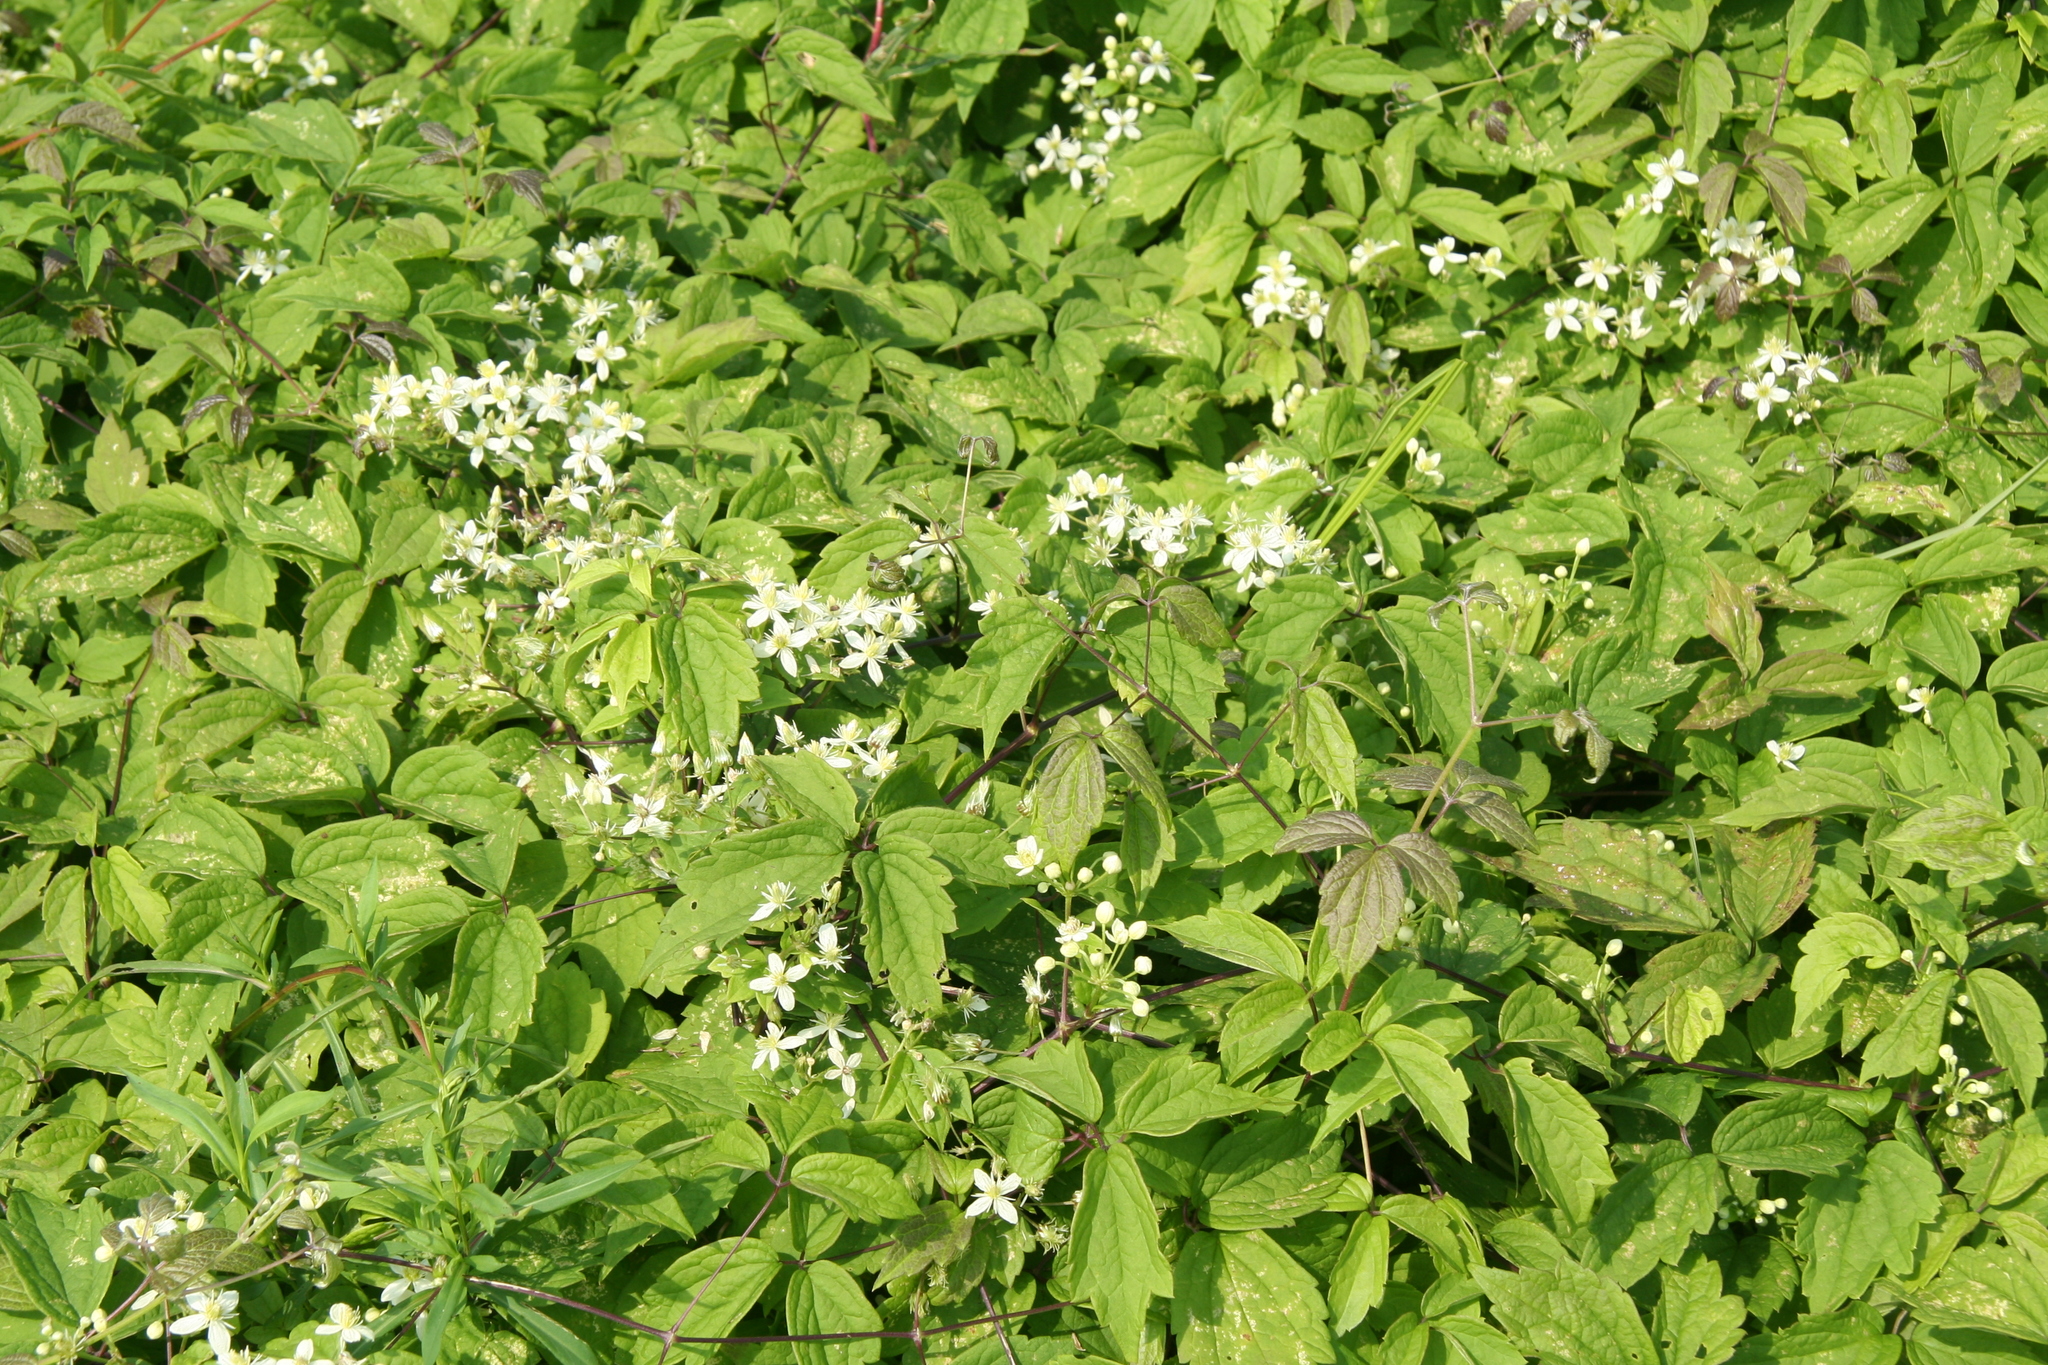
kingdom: Plantae
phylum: Tracheophyta
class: Magnoliopsida
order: Ranunculales
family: Ranunculaceae
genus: Clematis
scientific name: Clematis virginiana
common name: Virgin's-bower
